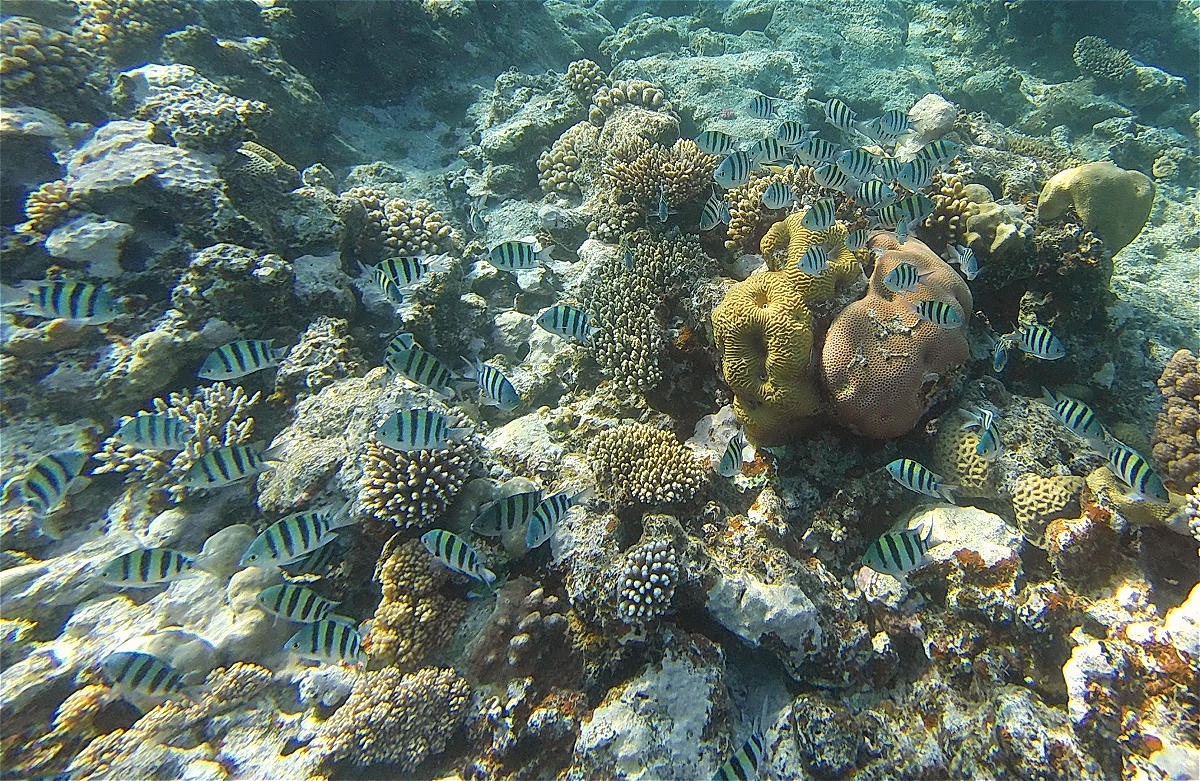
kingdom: Animalia
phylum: Chordata
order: Perciformes
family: Pomacentridae
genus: Abudefduf
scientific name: Abudefduf vaigiensis
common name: Indo-pacific sergeant
